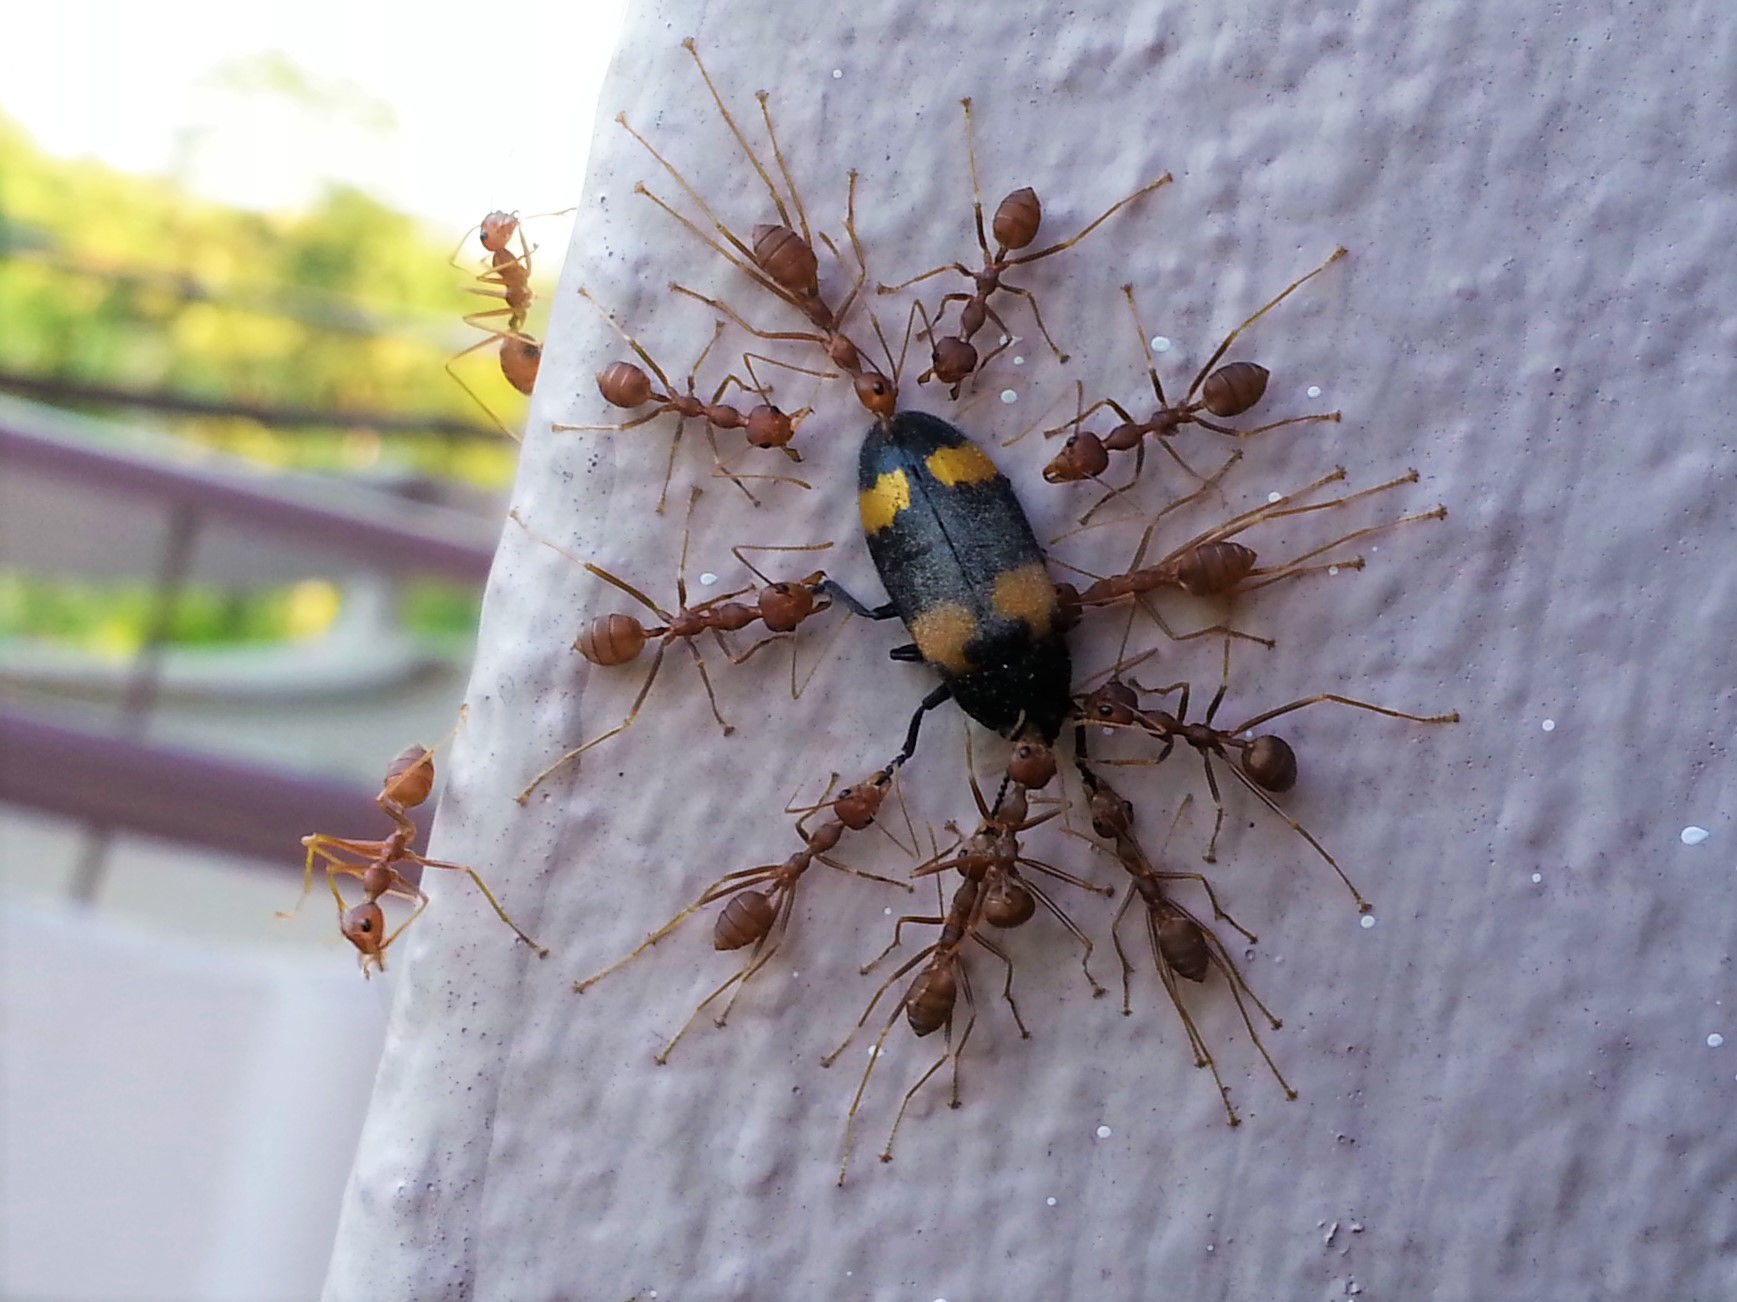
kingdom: Animalia
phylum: Arthropoda
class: Insecta
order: Hymenoptera
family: Formicidae
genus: Oecophylla
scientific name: Oecophylla smaragdina
